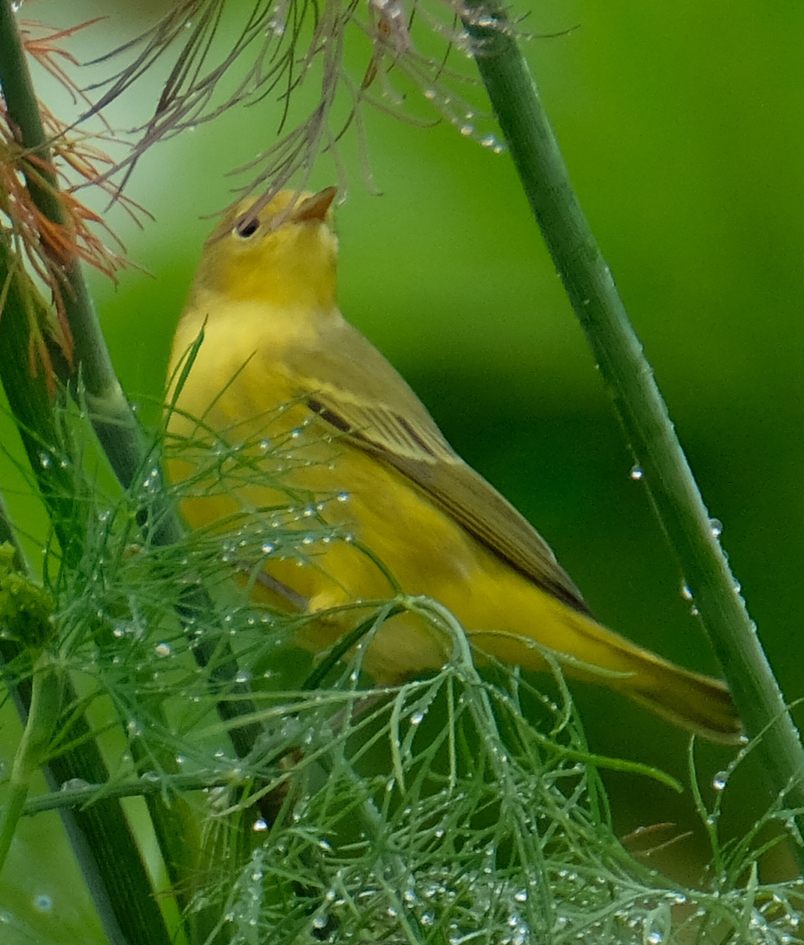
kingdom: Animalia
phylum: Chordata
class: Aves
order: Passeriformes
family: Parulidae
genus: Setophaga
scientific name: Setophaga petechia
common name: Yellow warbler
